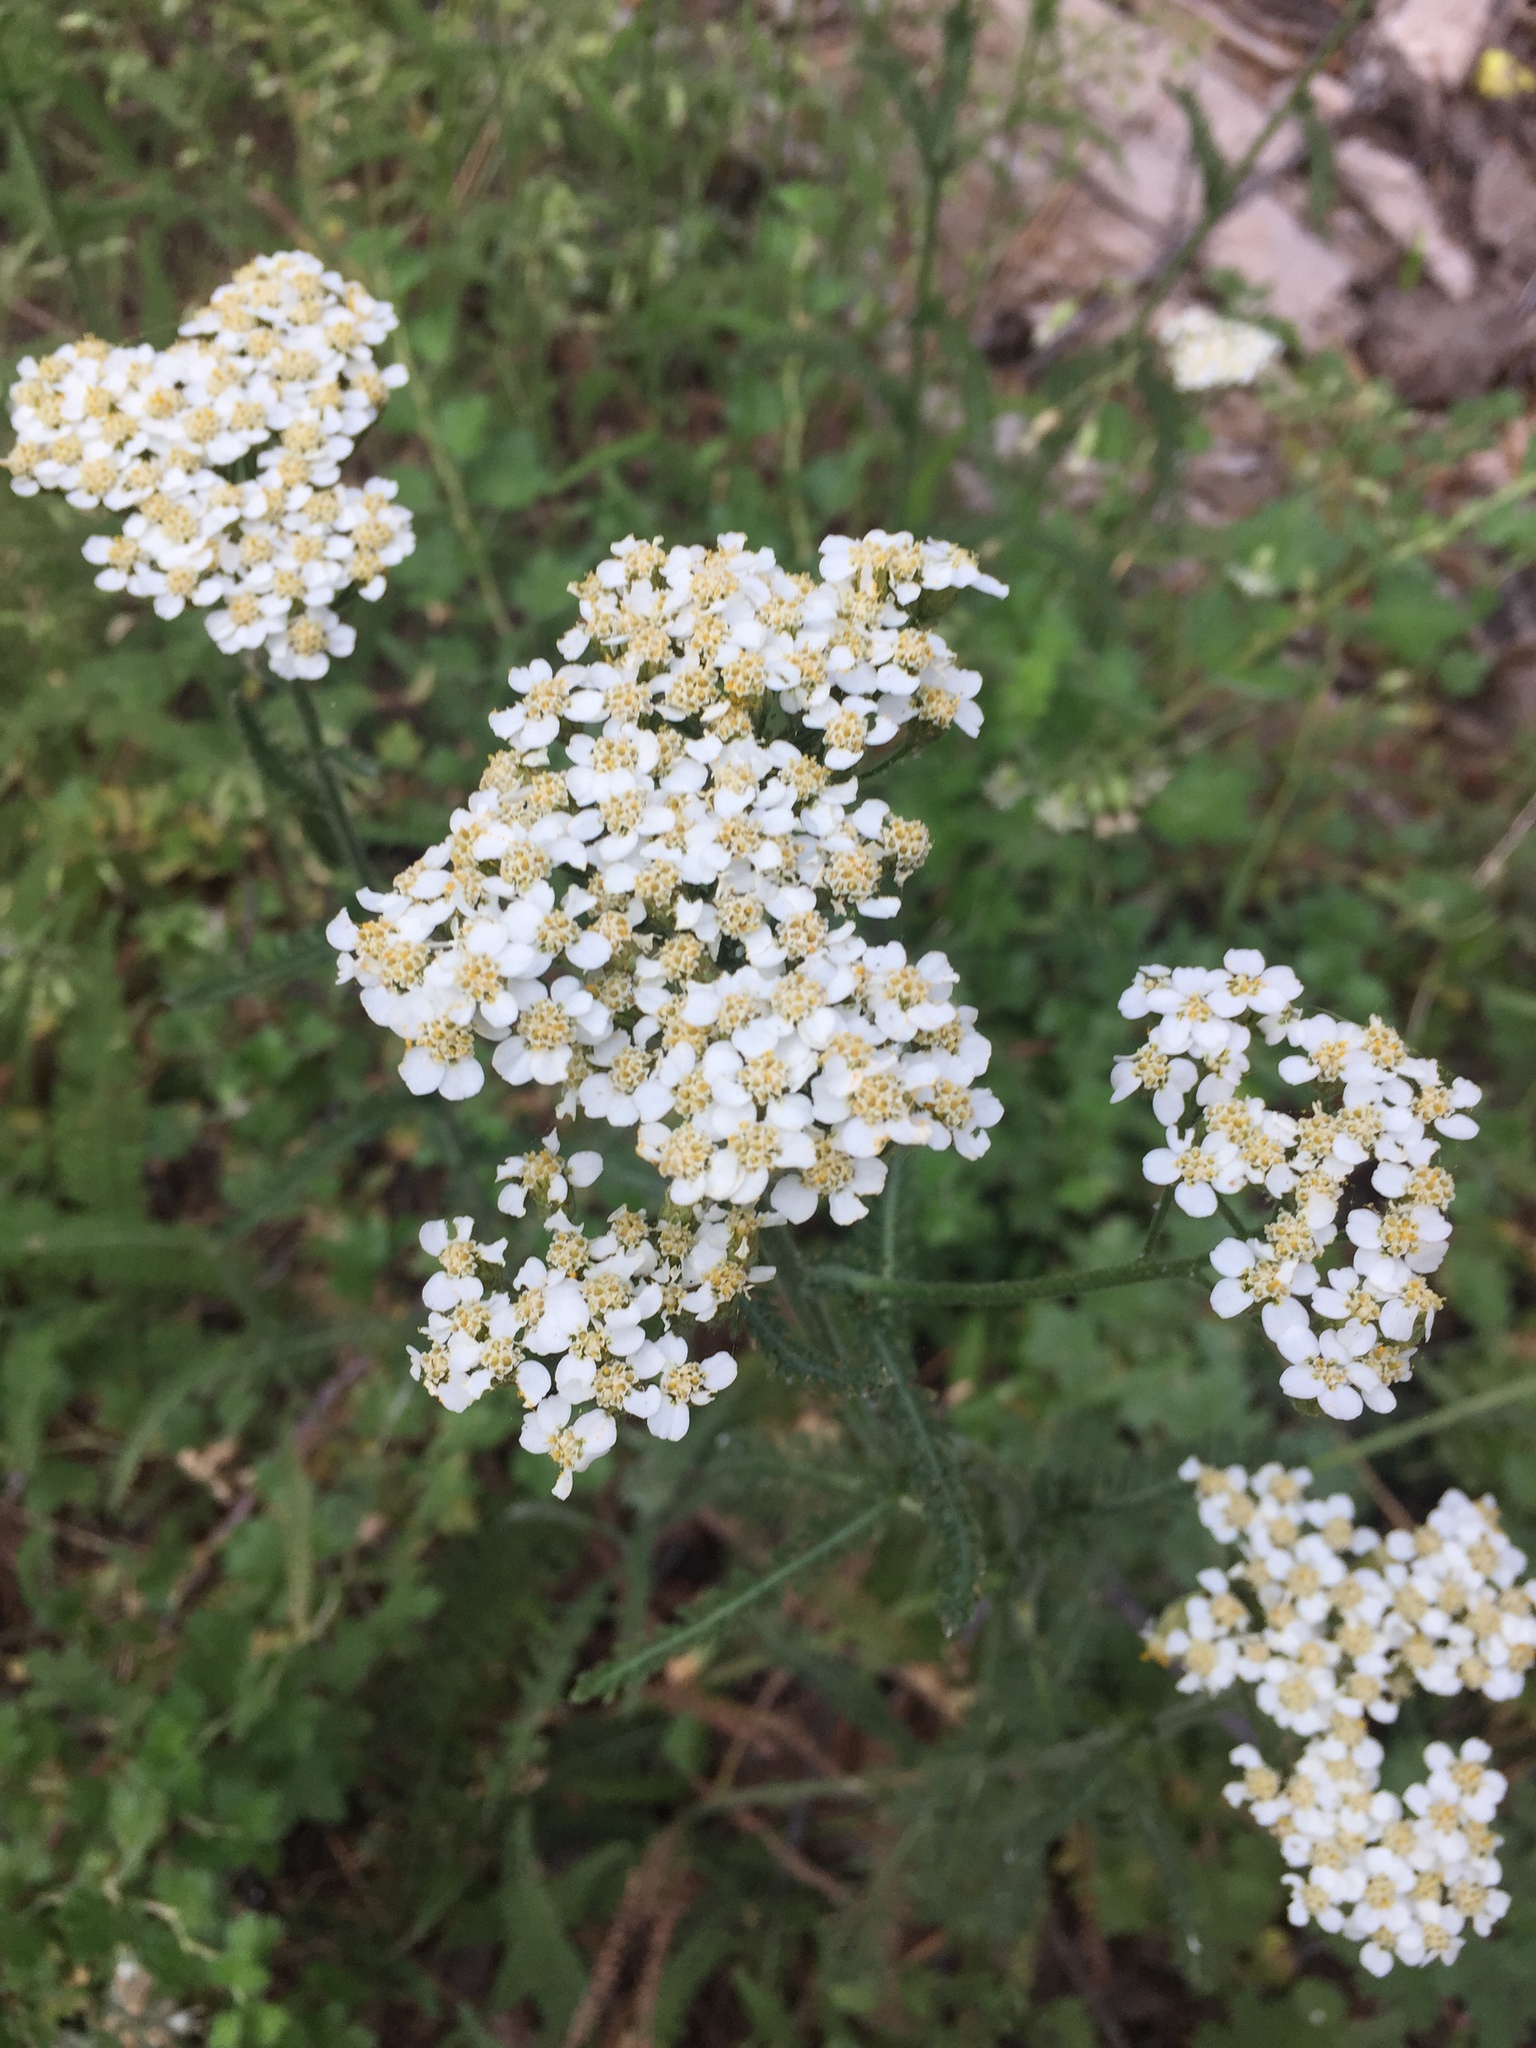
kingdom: Plantae
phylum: Tracheophyta
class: Magnoliopsida
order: Asterales
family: Asteraceae
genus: Achillea
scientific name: Achillea millefolium
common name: Yarrow
